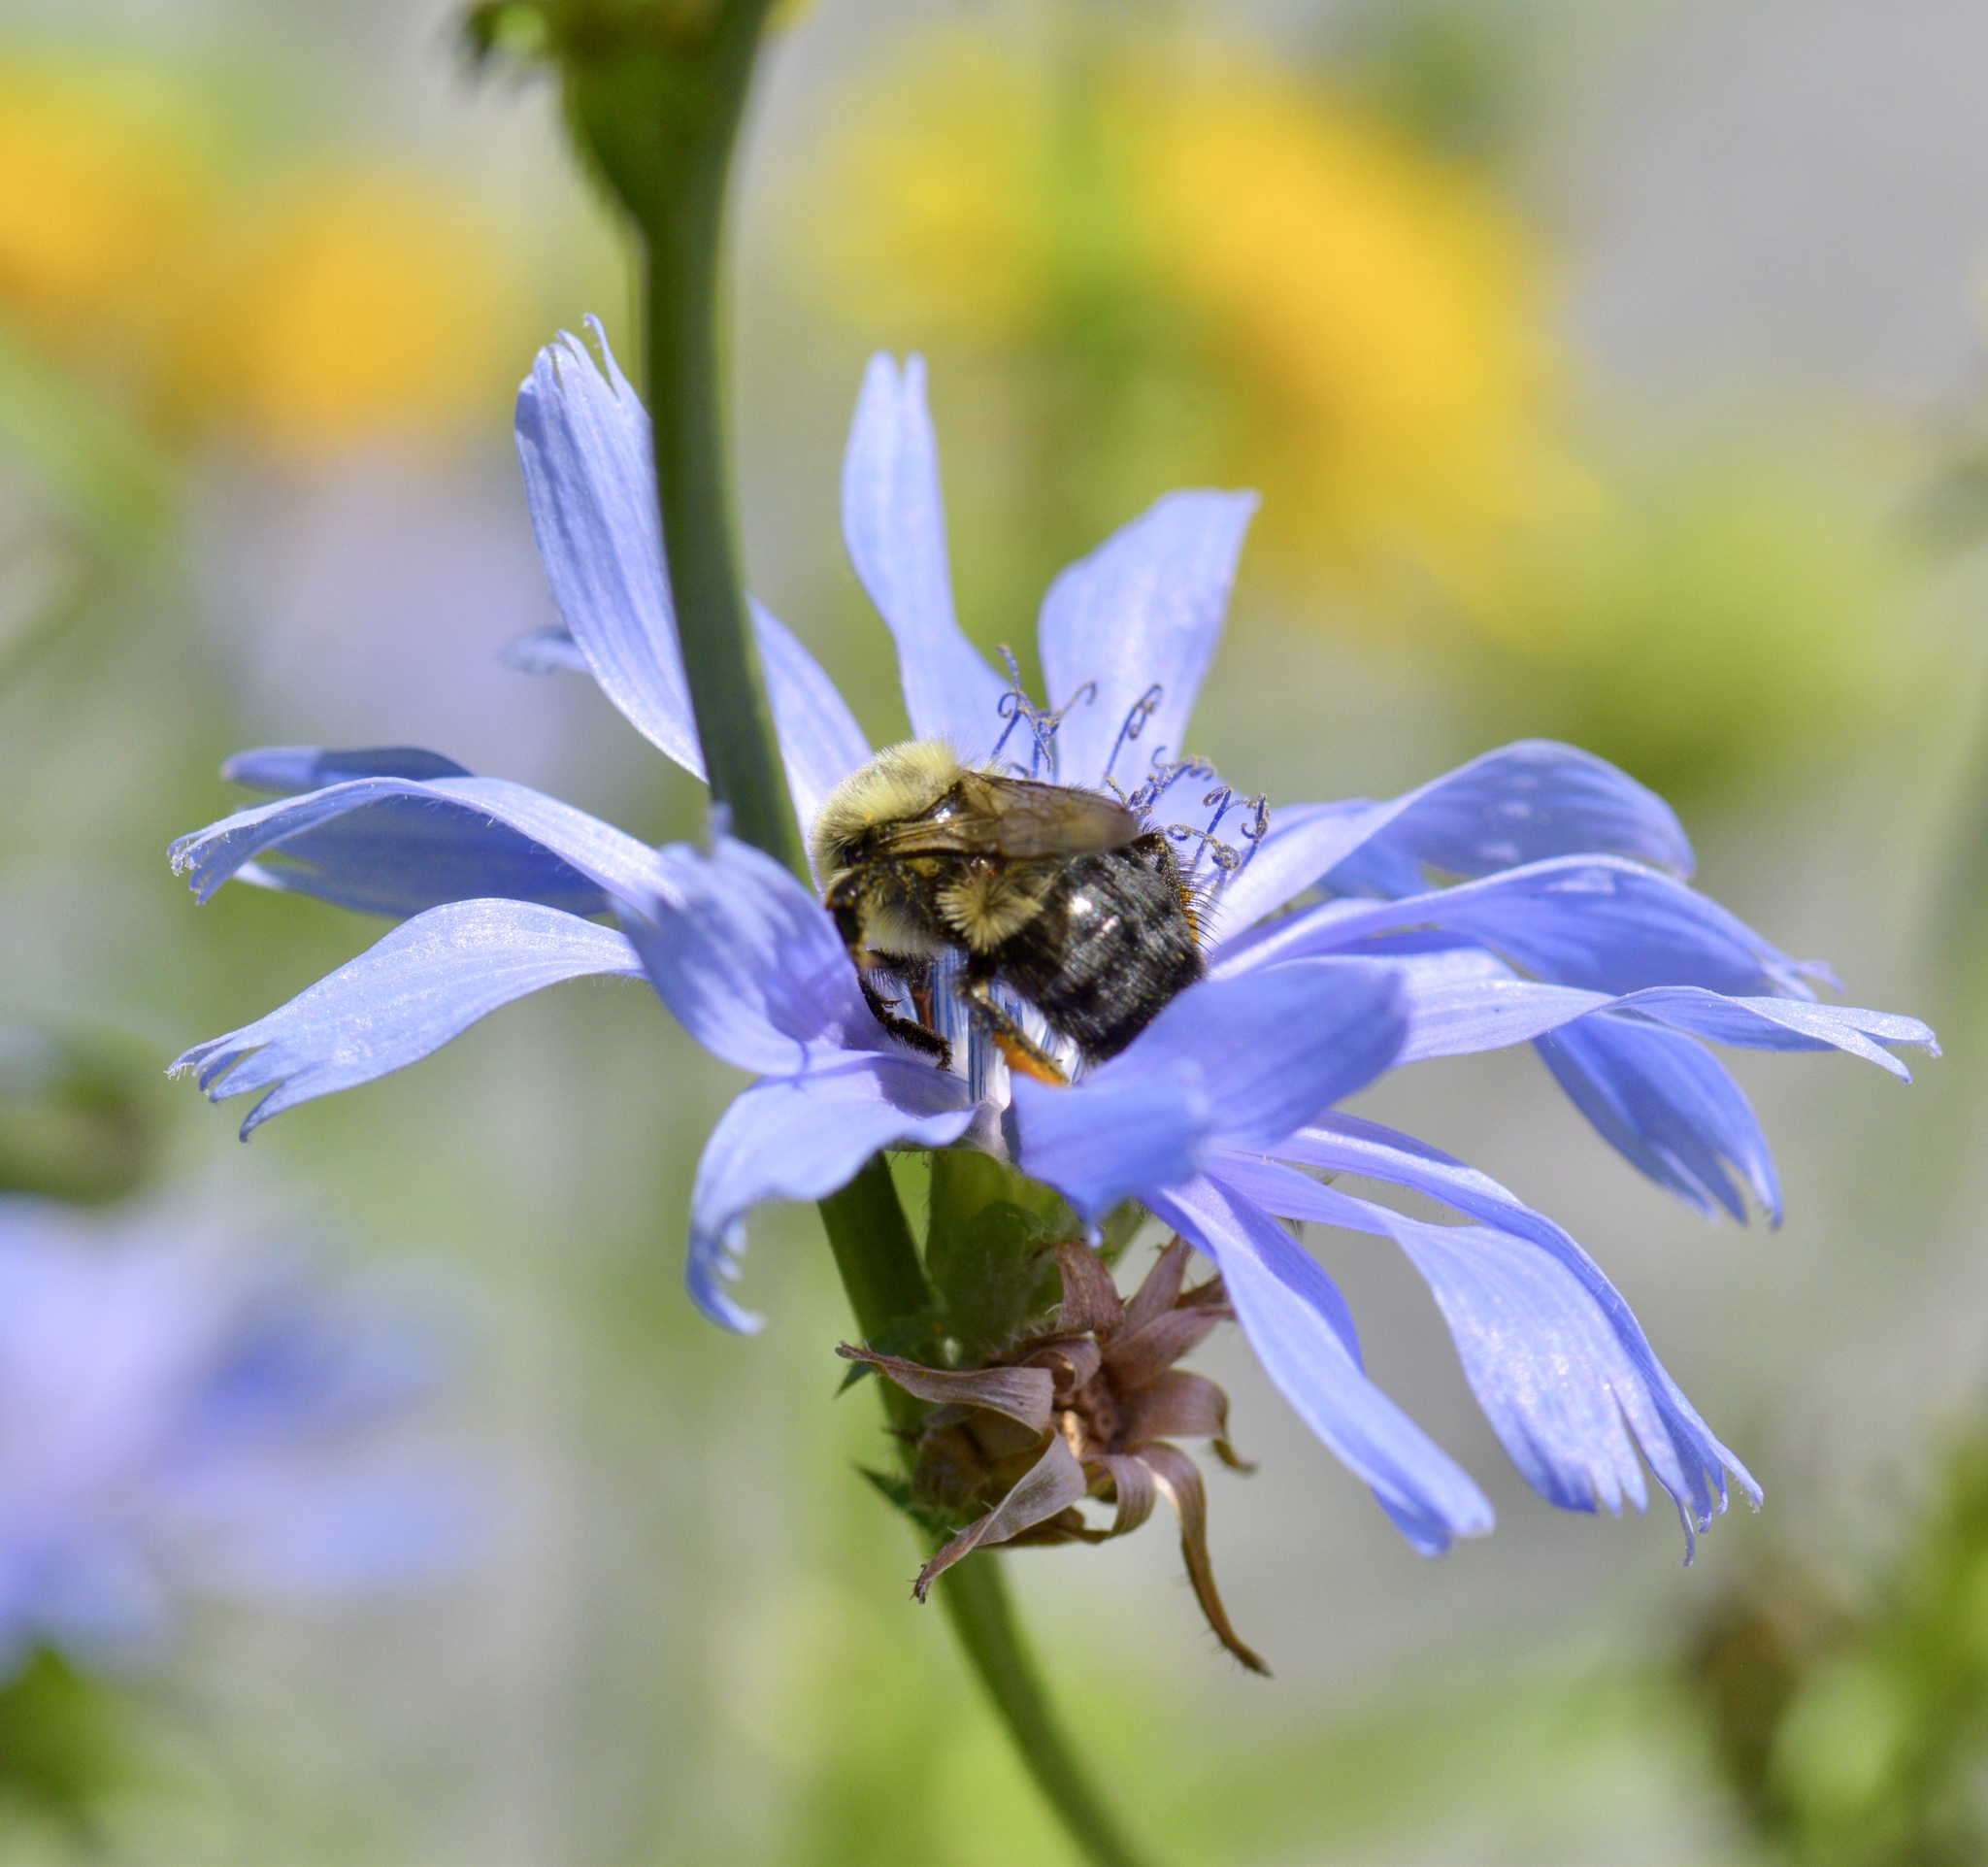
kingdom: Animalia
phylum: Arthropoda
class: Insecta
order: Hymenoptera
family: Apidae
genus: Bombus
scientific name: Bombus impatiens
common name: Common eastern bumble bee
